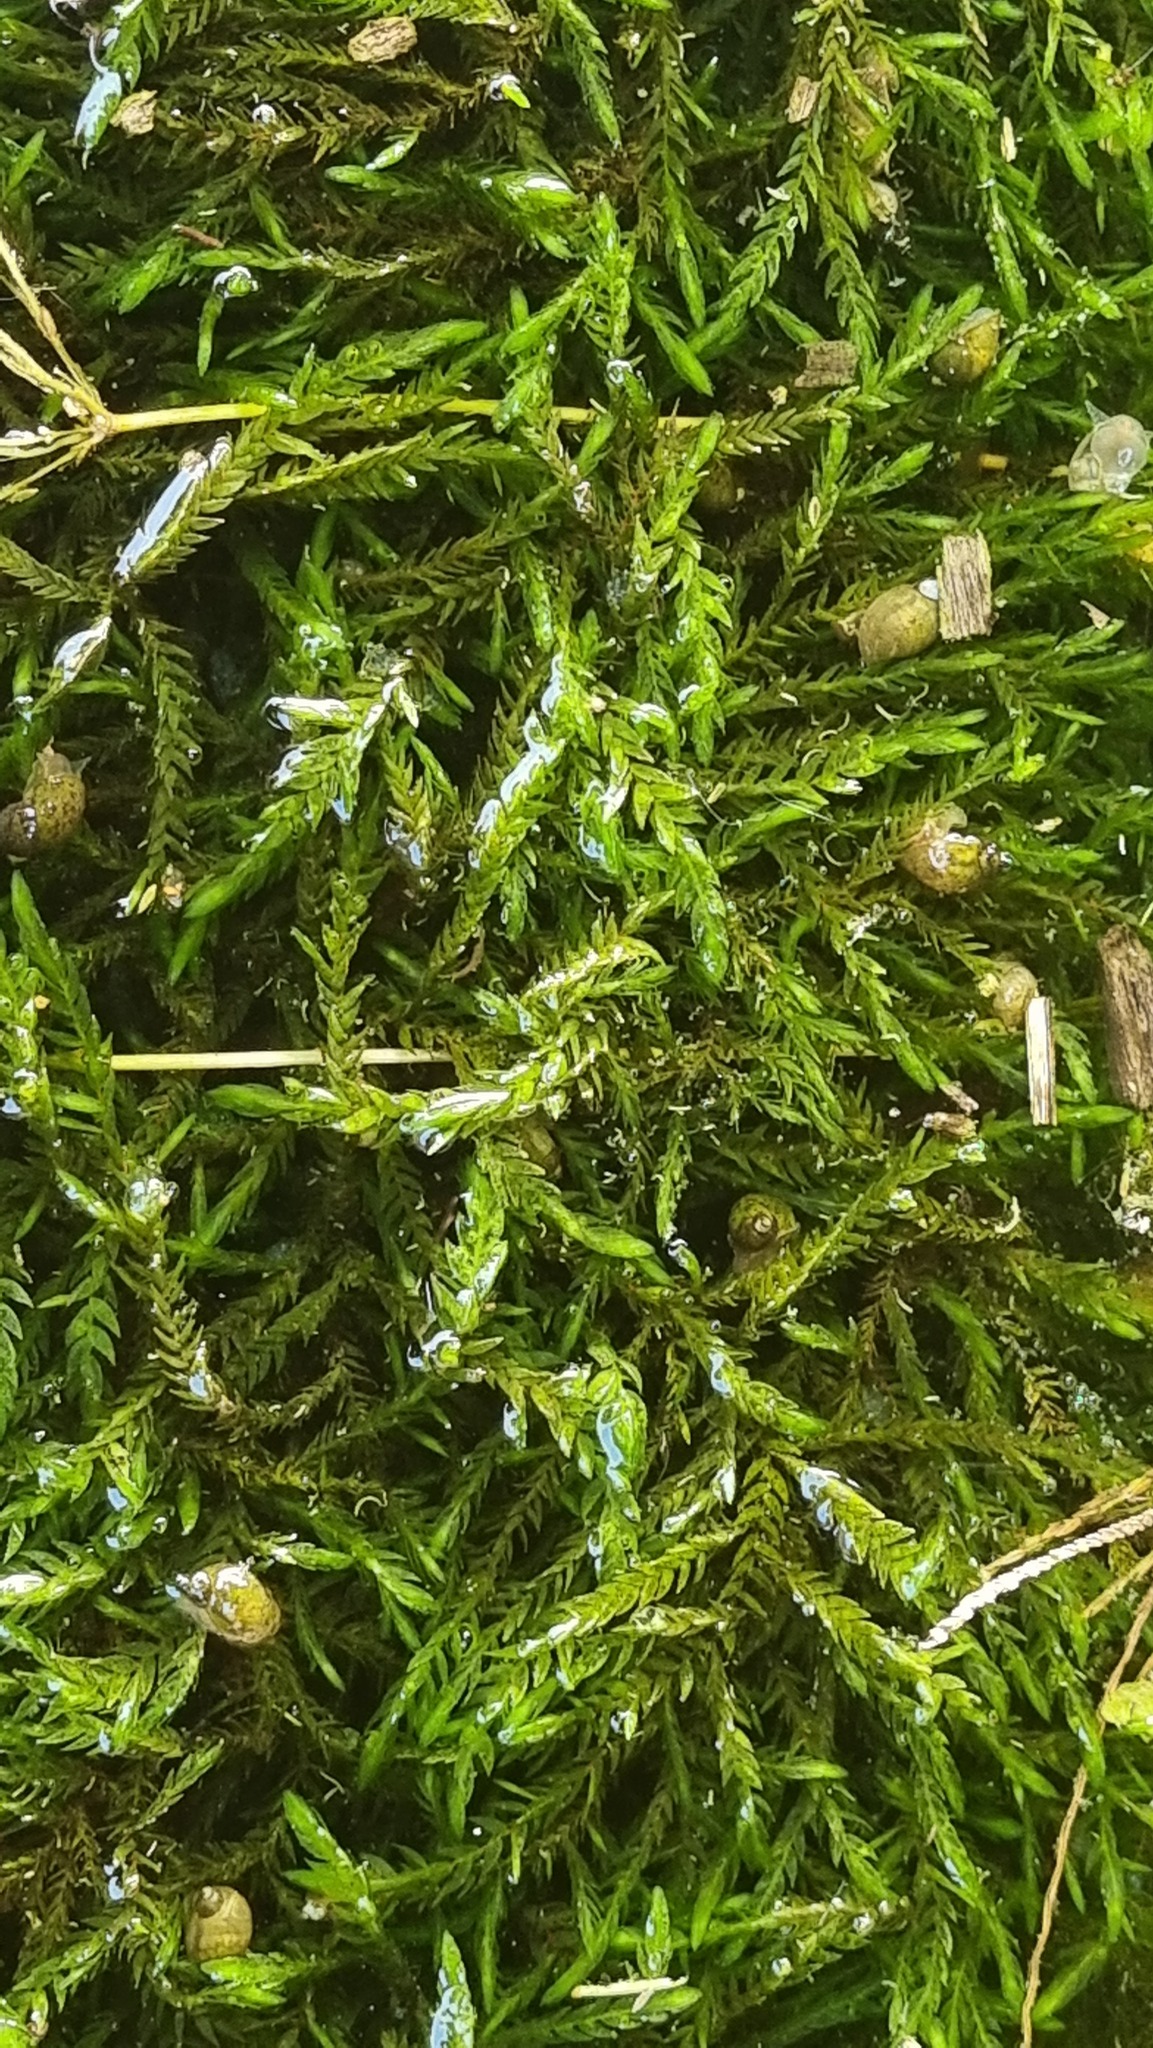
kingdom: Plantae
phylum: Bryophyta
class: Bryopsida
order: Hypnales
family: Fontinalaceae
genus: Fontinalis
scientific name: Fontinalis antipyretica
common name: Greater water-moss
